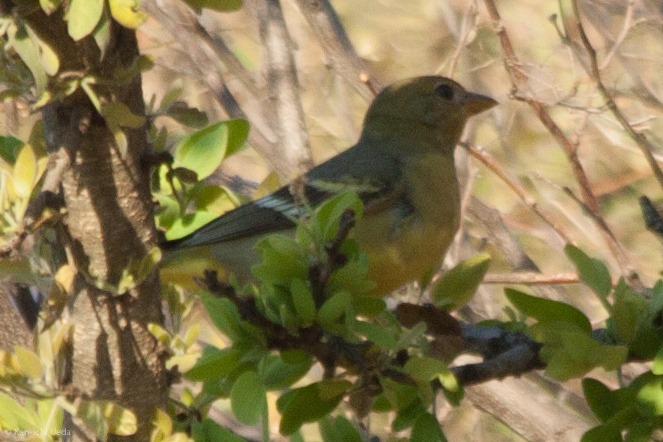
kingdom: Animalia
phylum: Chordata
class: Aves
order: Passeriformes
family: Cardinalidae
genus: Piranga
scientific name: Piranga ludoviciana
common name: Western tanager
